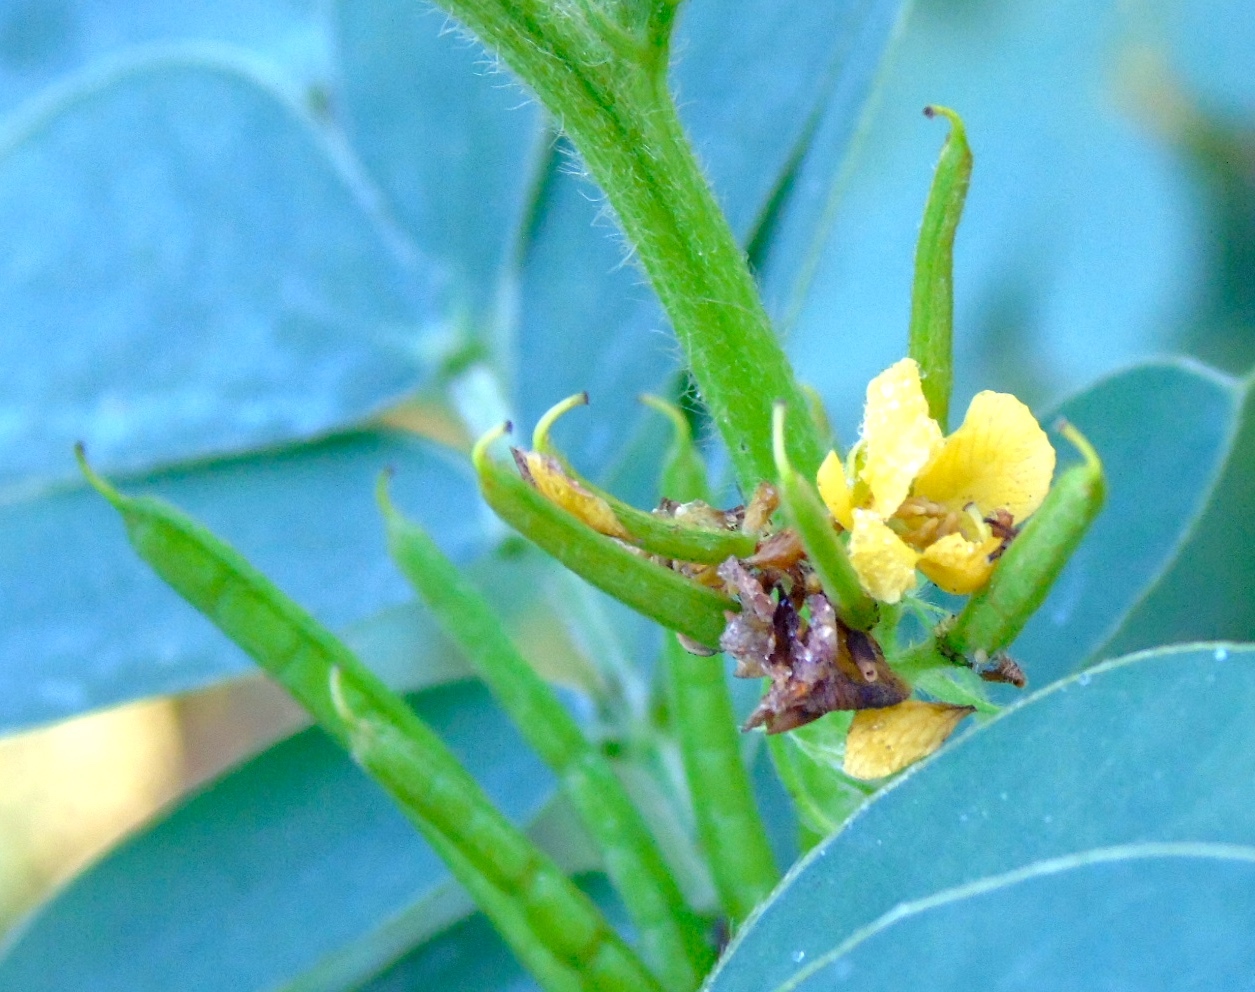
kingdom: Plantae
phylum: Tracheophyta
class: Magnoliopsida
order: Fabales
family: Fabaceae
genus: Senna
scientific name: Senna uniflora
